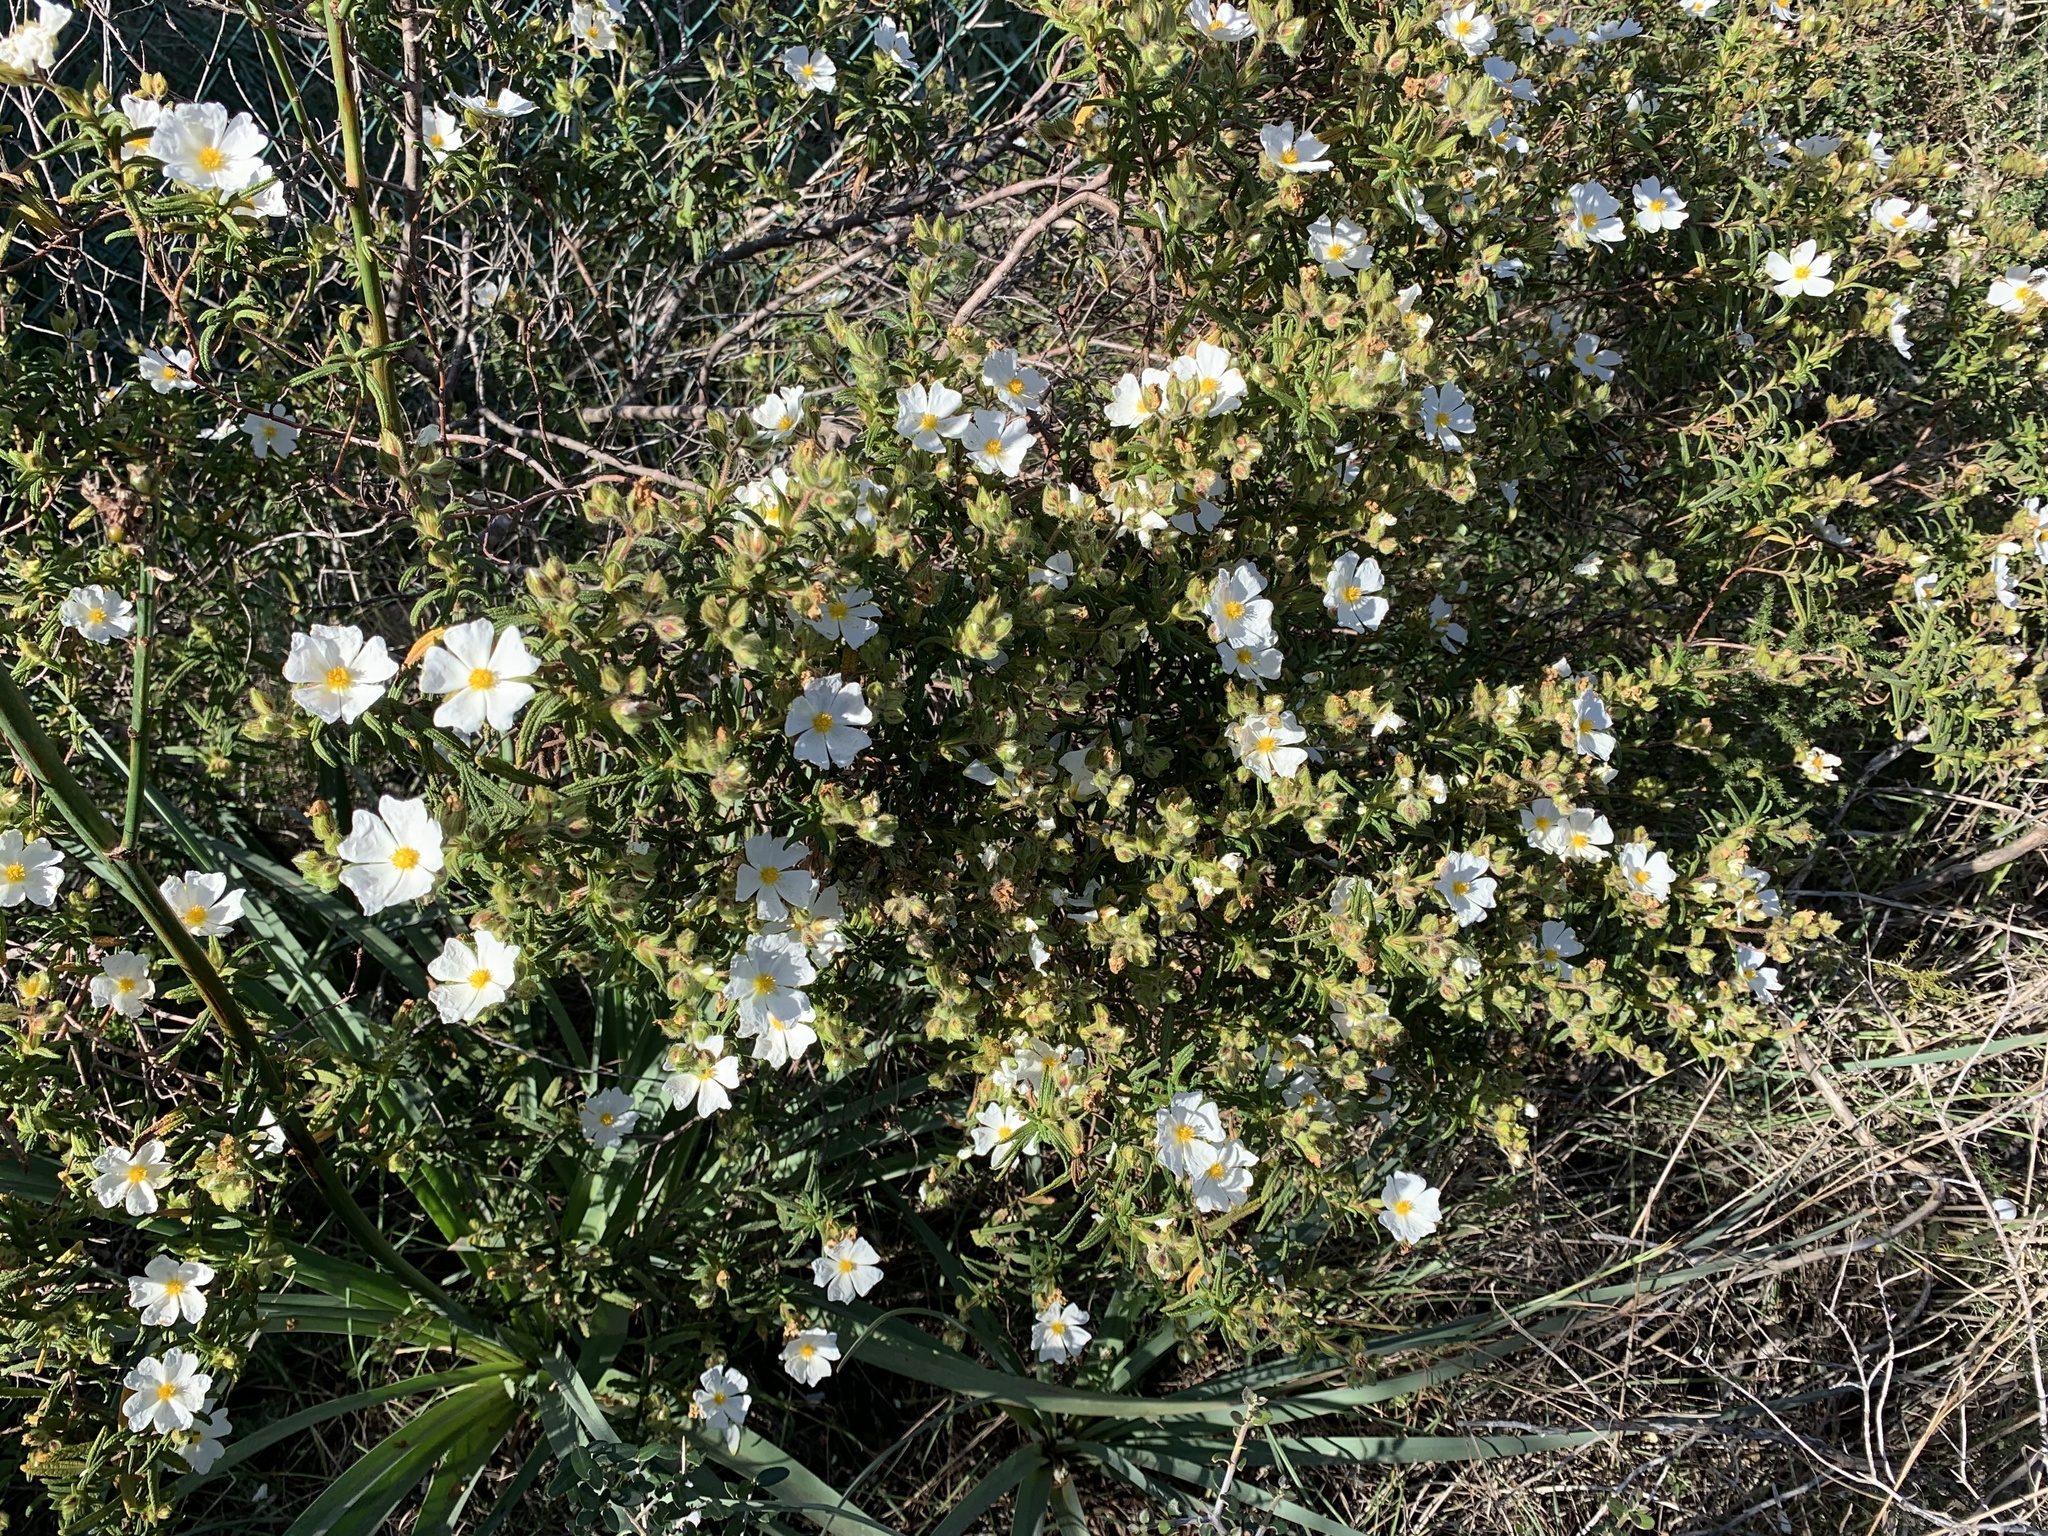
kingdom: Plantae
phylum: Tracheophyta
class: Magnoliopsida
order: Malvales
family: Cistaceae
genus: Cistus
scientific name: Cistus monspeliensis
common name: Montpelier cistus
